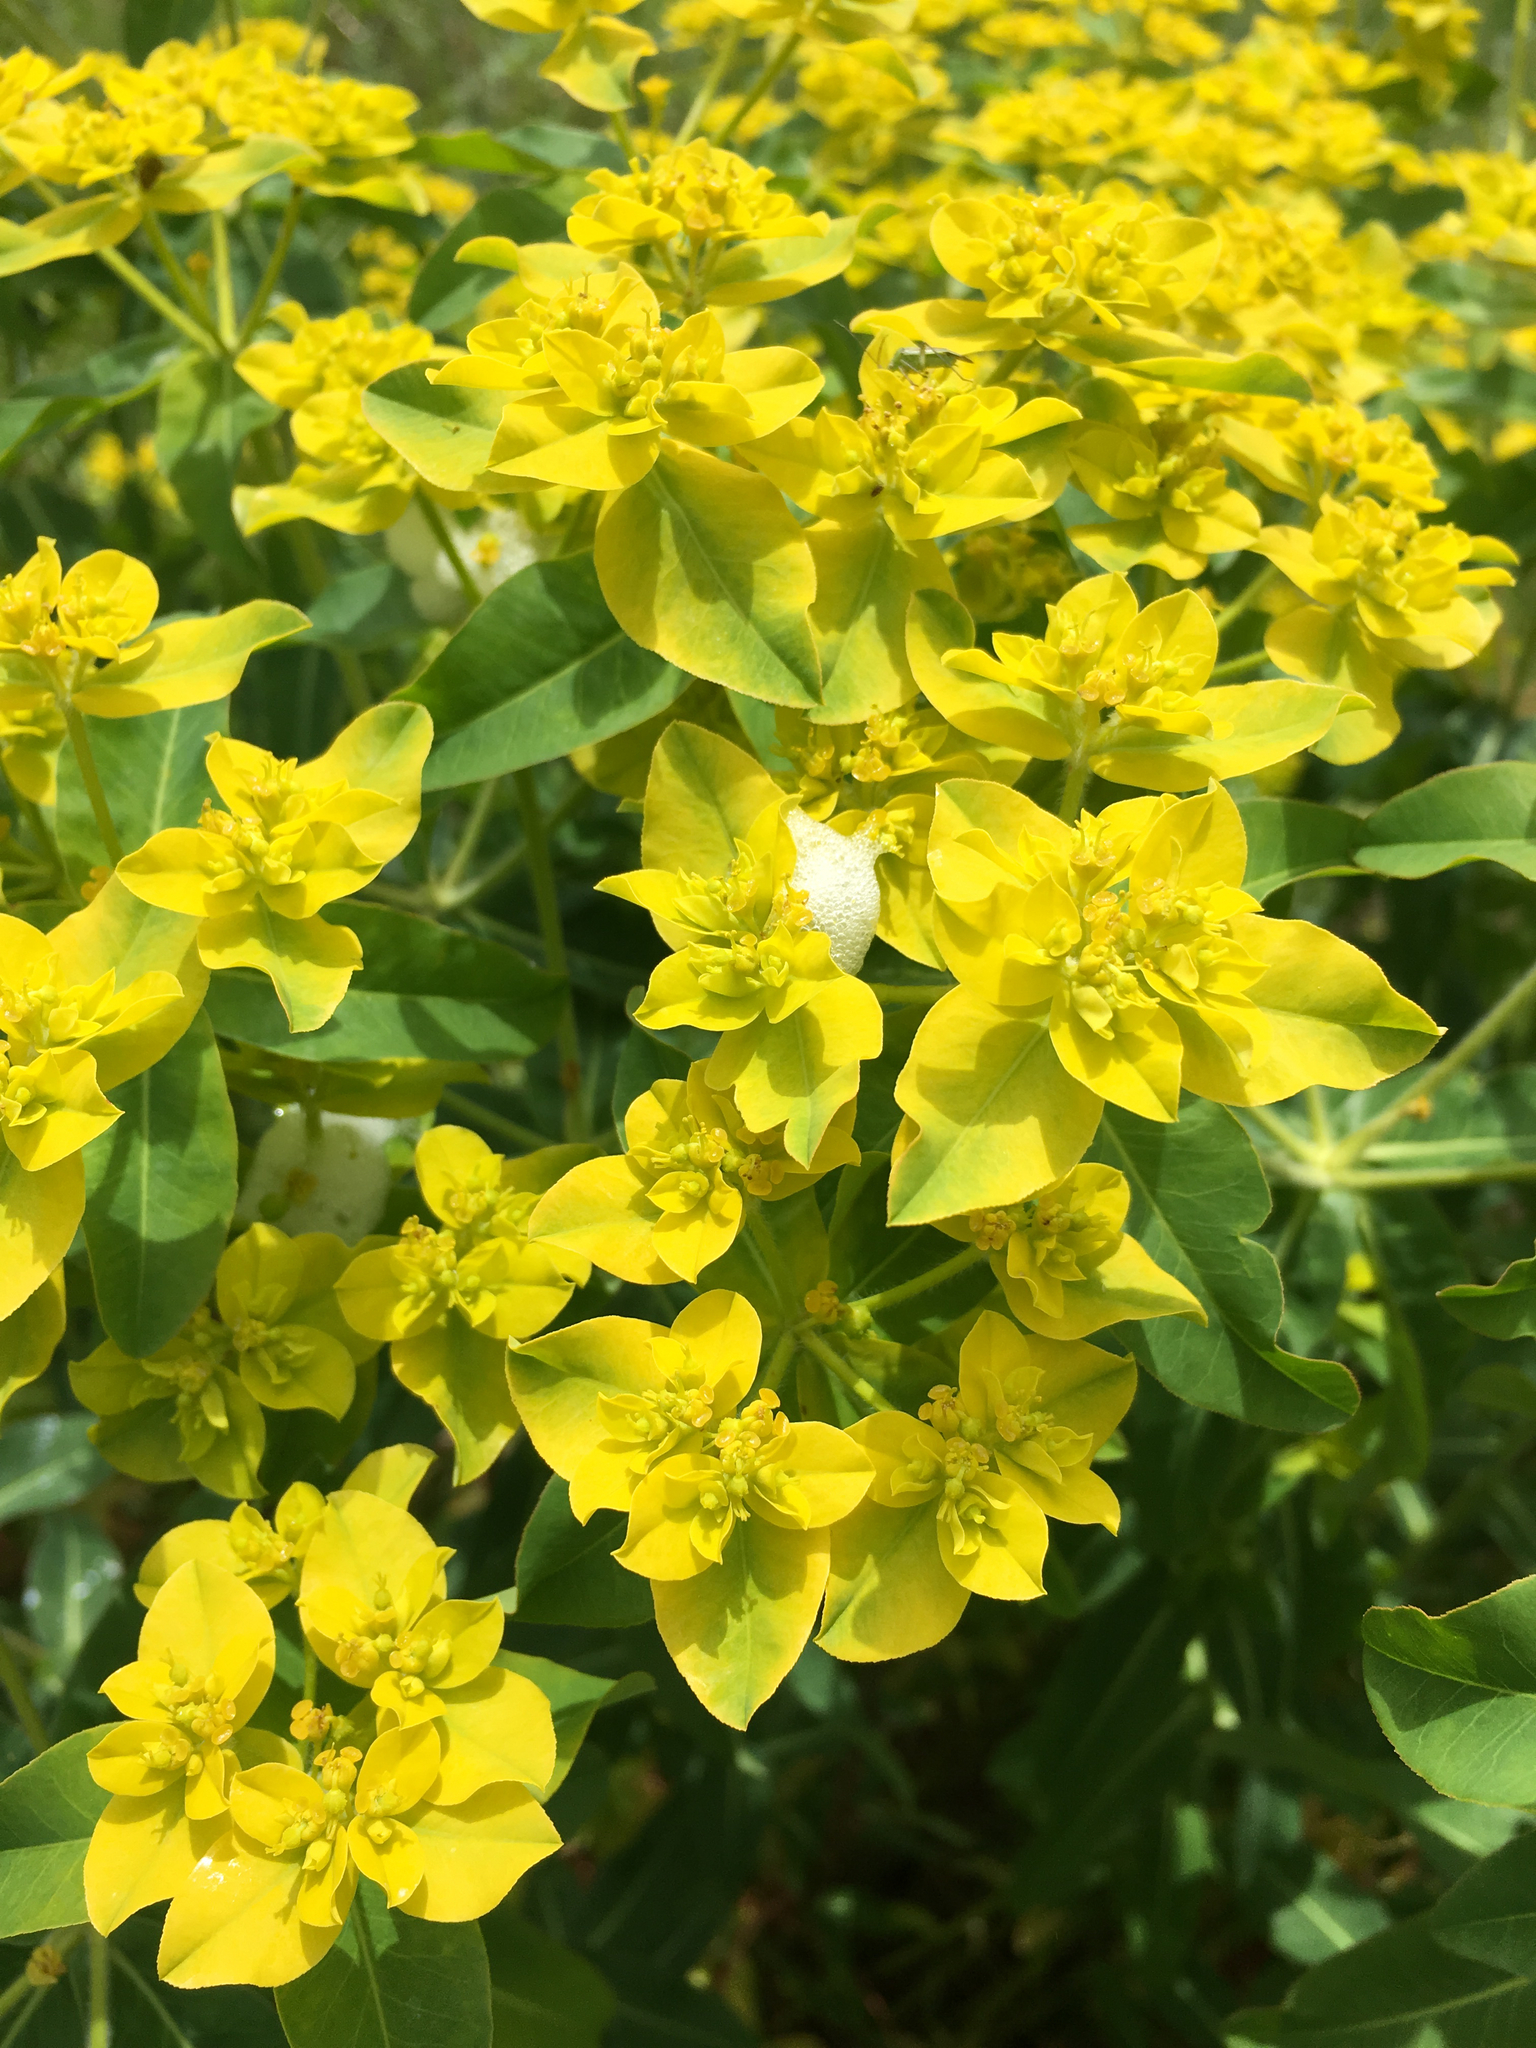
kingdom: Plantae
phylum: Tracheophyta
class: Magnoliopsida
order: Malpighiales
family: Euphorbiaceae
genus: Euphorbia
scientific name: Euphorbia oblongata
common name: Balkan spurge
